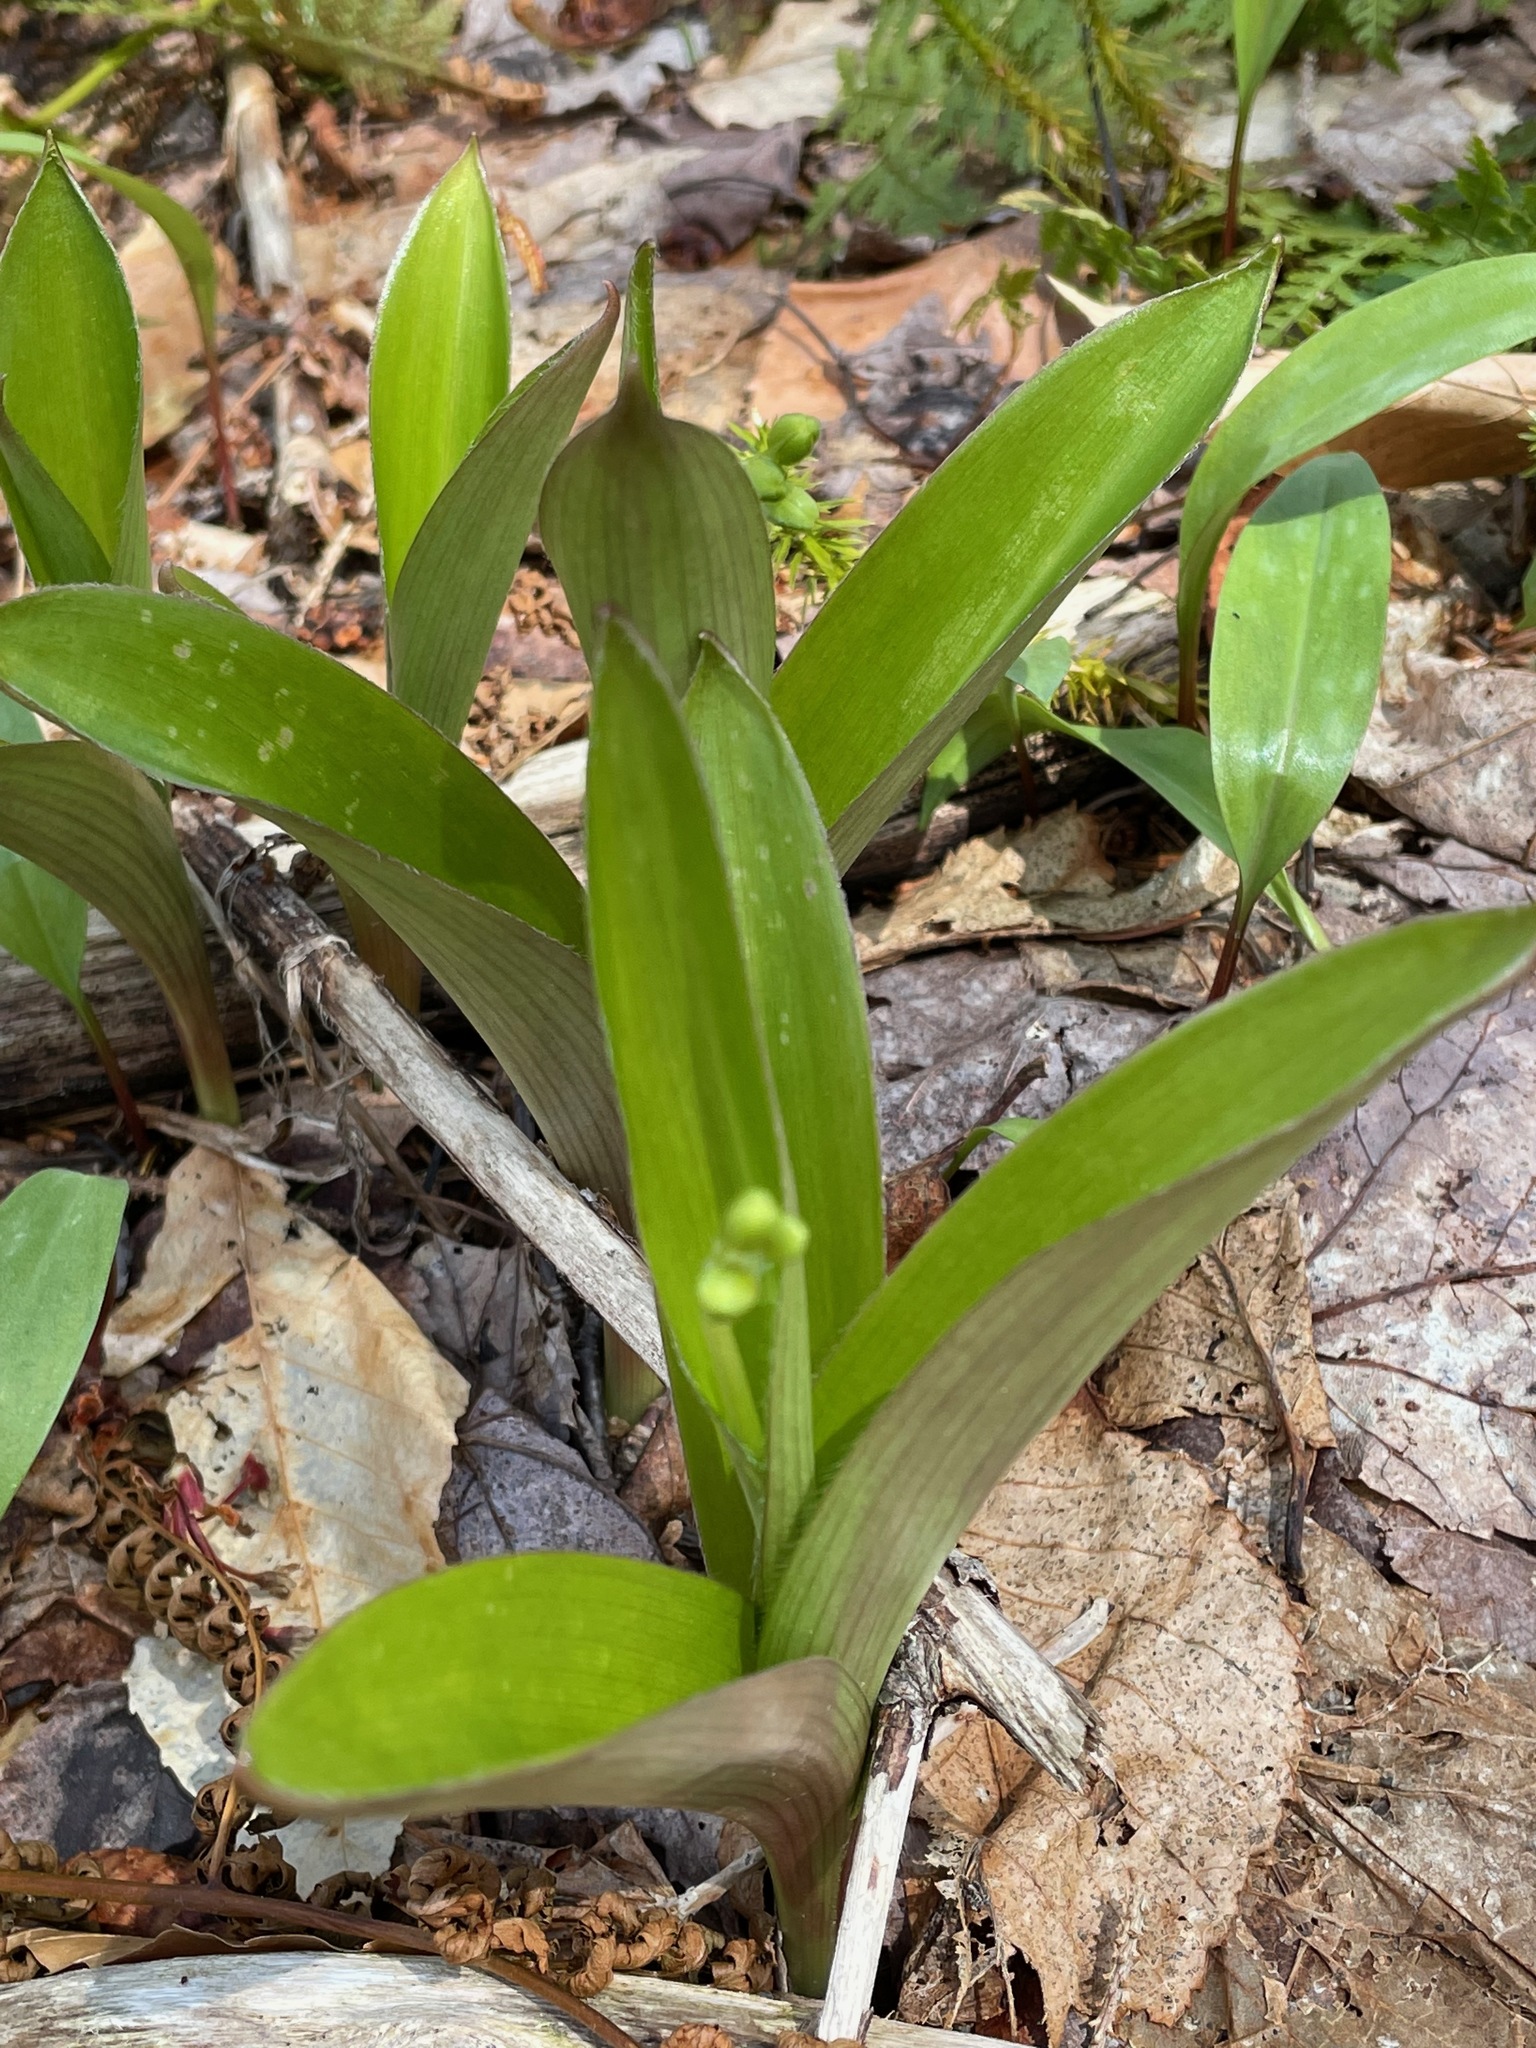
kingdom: Plantae
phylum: Tracheophyta
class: Liliopsida
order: Liliales
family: Liliaceae
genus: Clintonia
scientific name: Clintonia borealis
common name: Yellow clintonia
